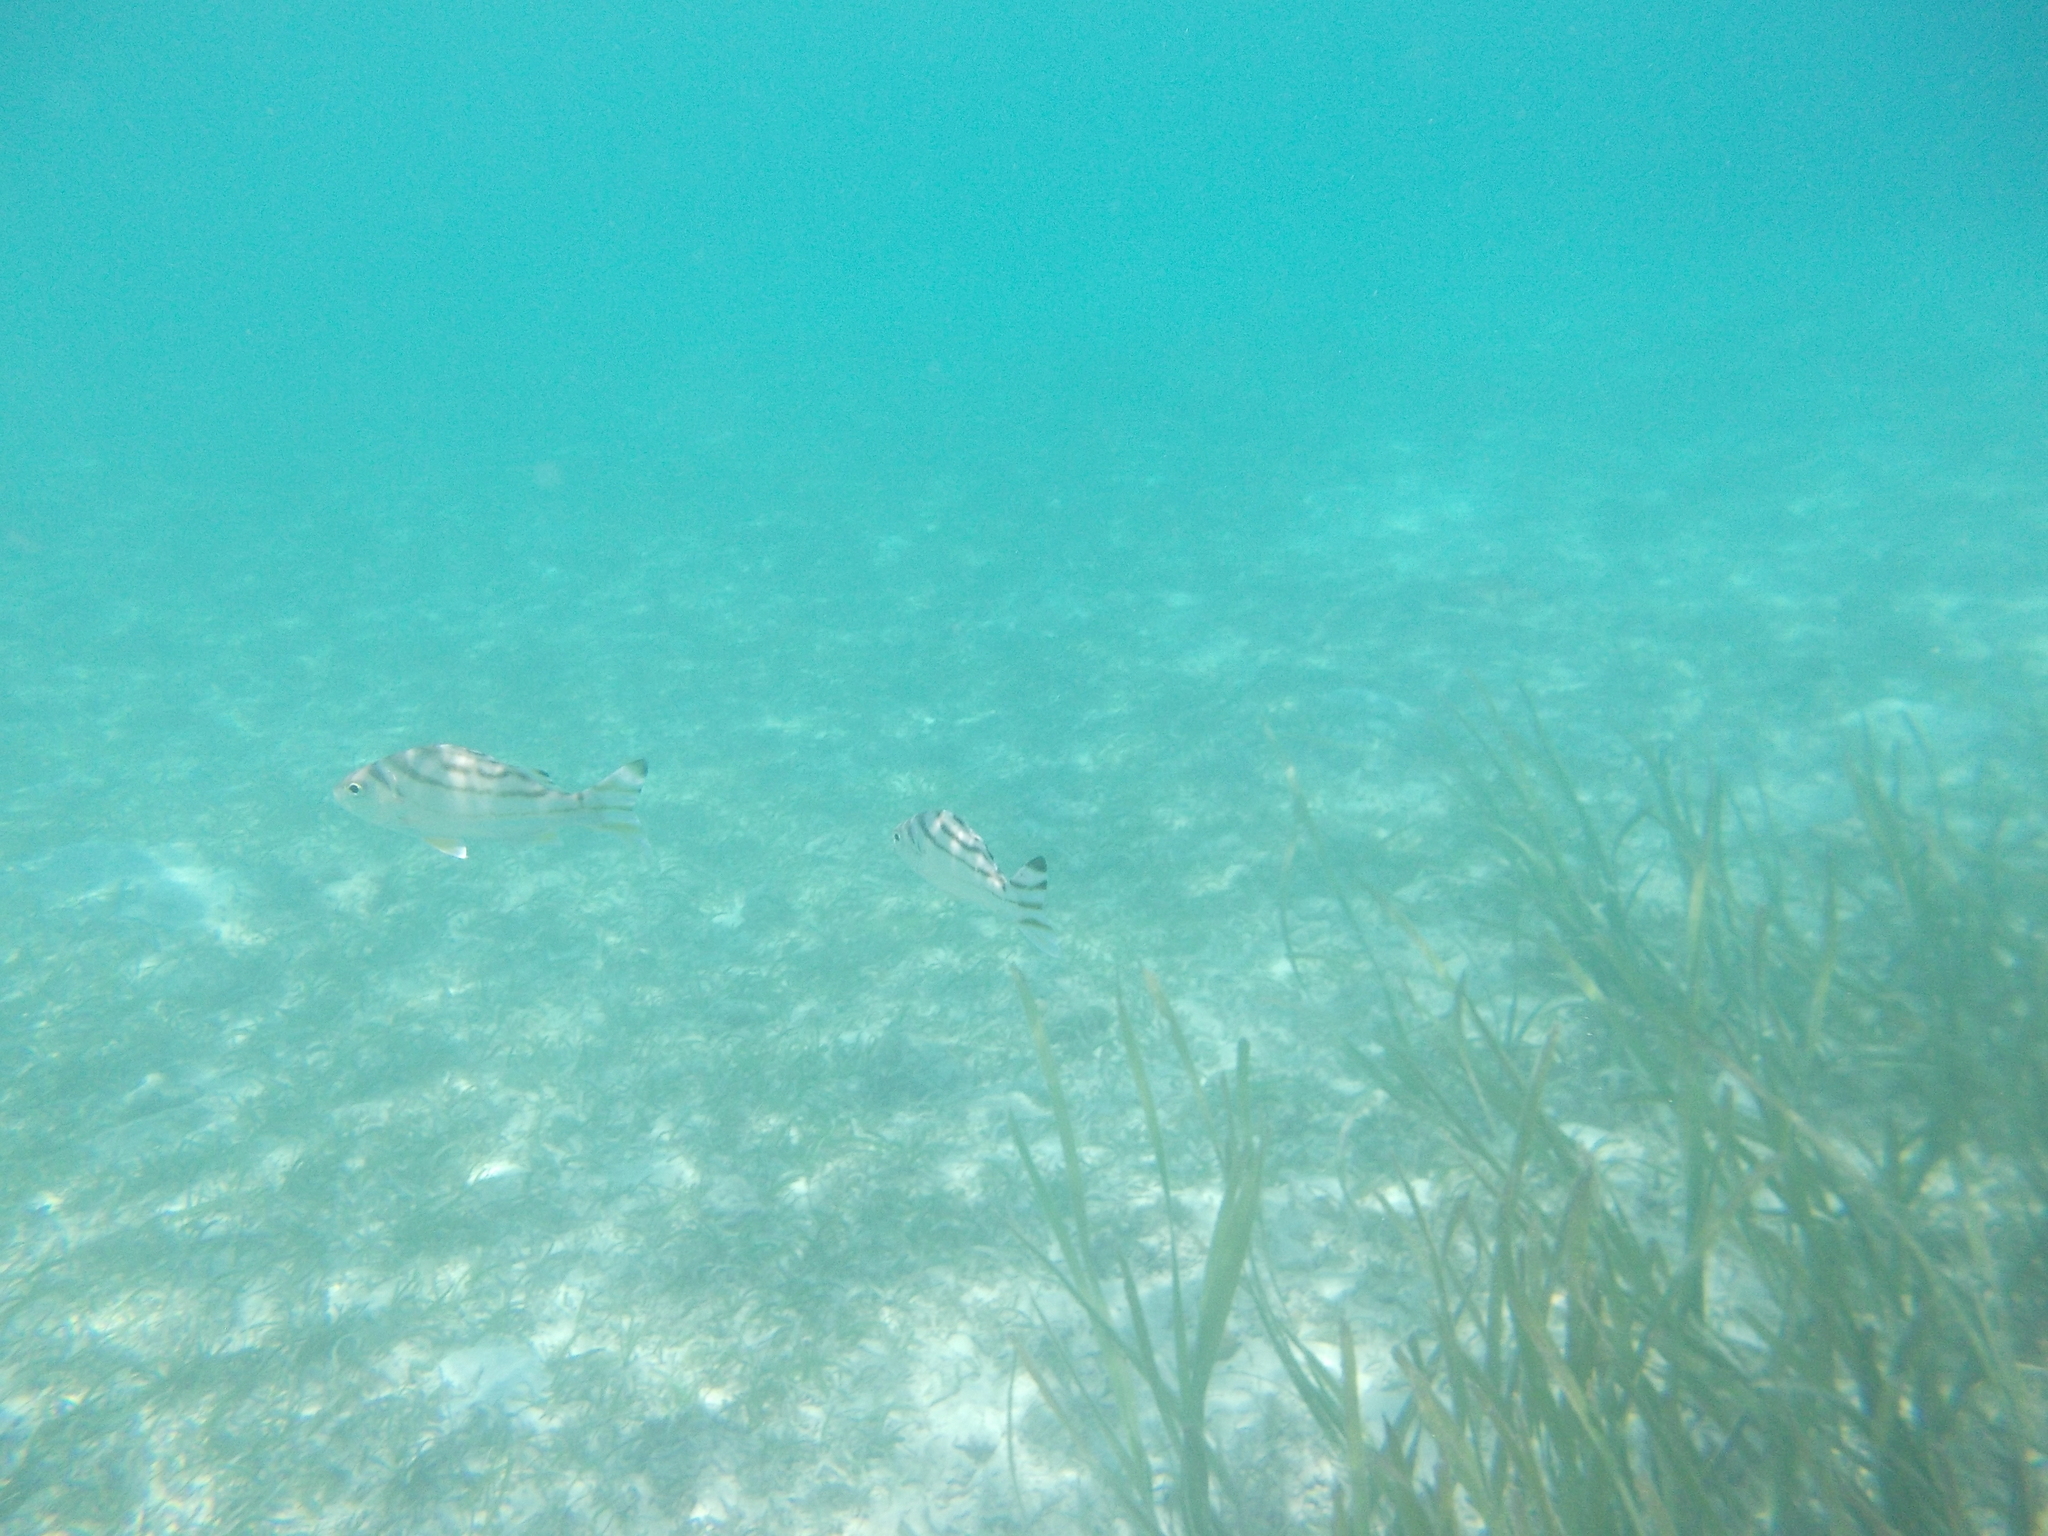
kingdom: Animalia
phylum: Chordata
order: Perciformes
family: Terapontidae
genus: Terapon
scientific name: Terapon jarbua
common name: Jarbua terapon
